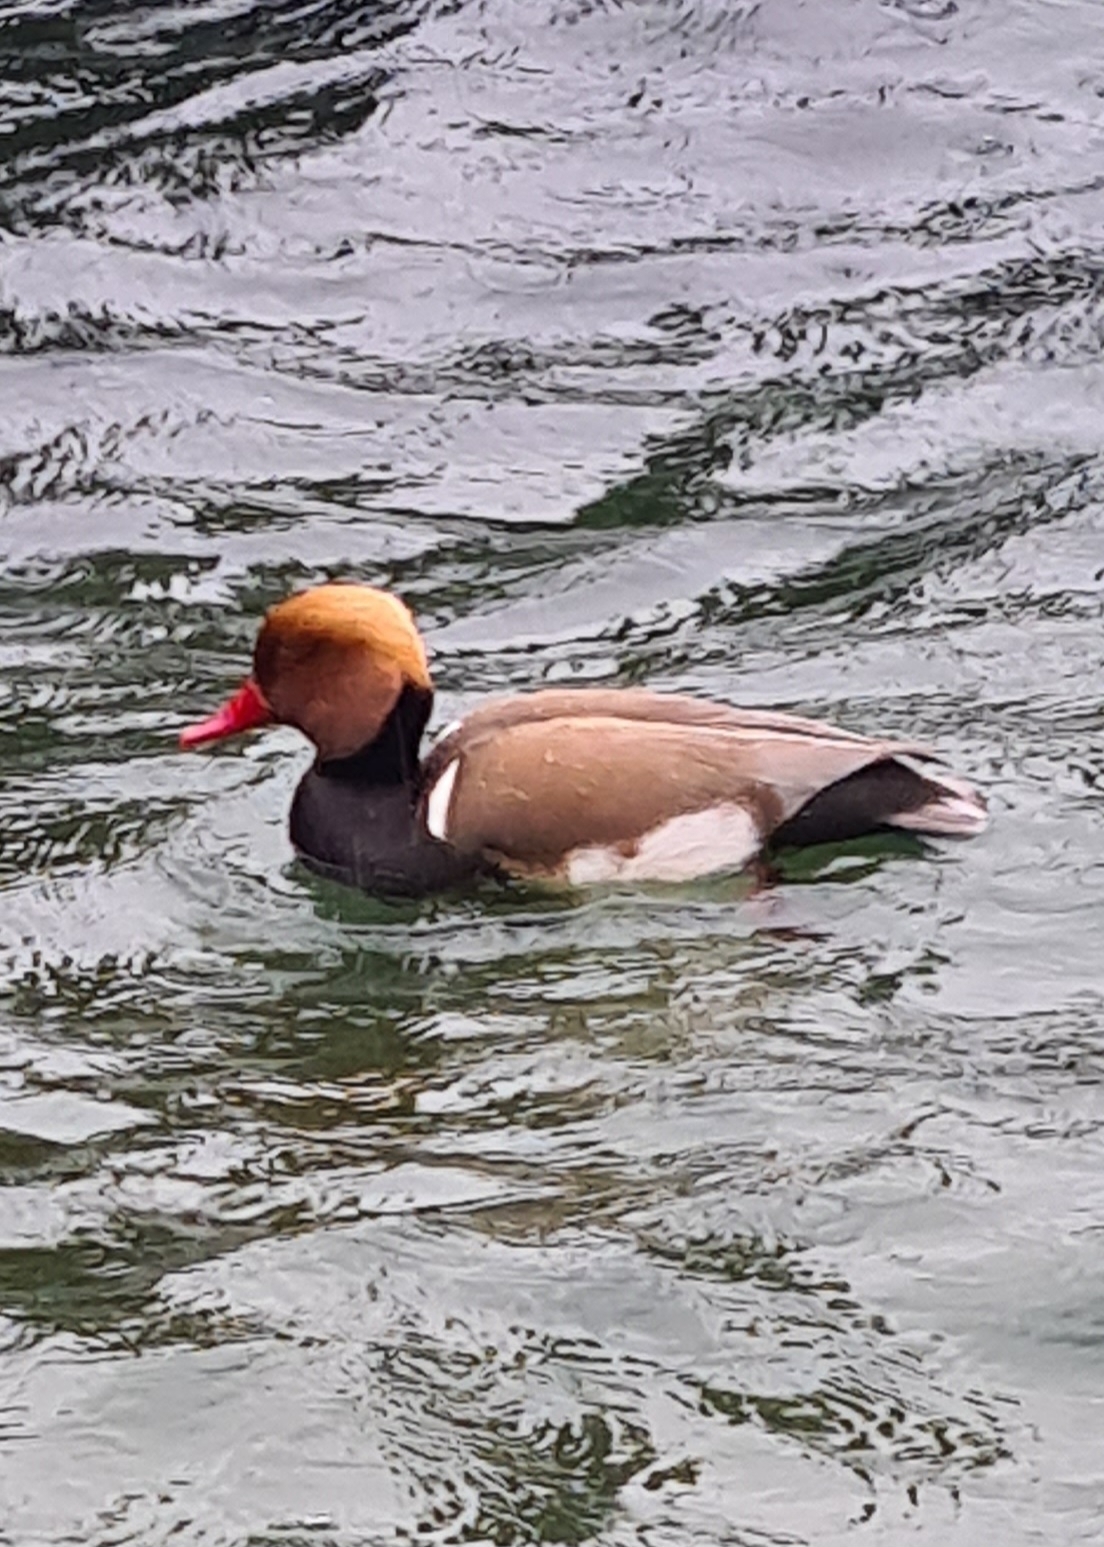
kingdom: Animalia
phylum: Chordata
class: Aves
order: Anseriformes
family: Anatidae
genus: Netta
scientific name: Netta rufina
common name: Red-crested pochard
